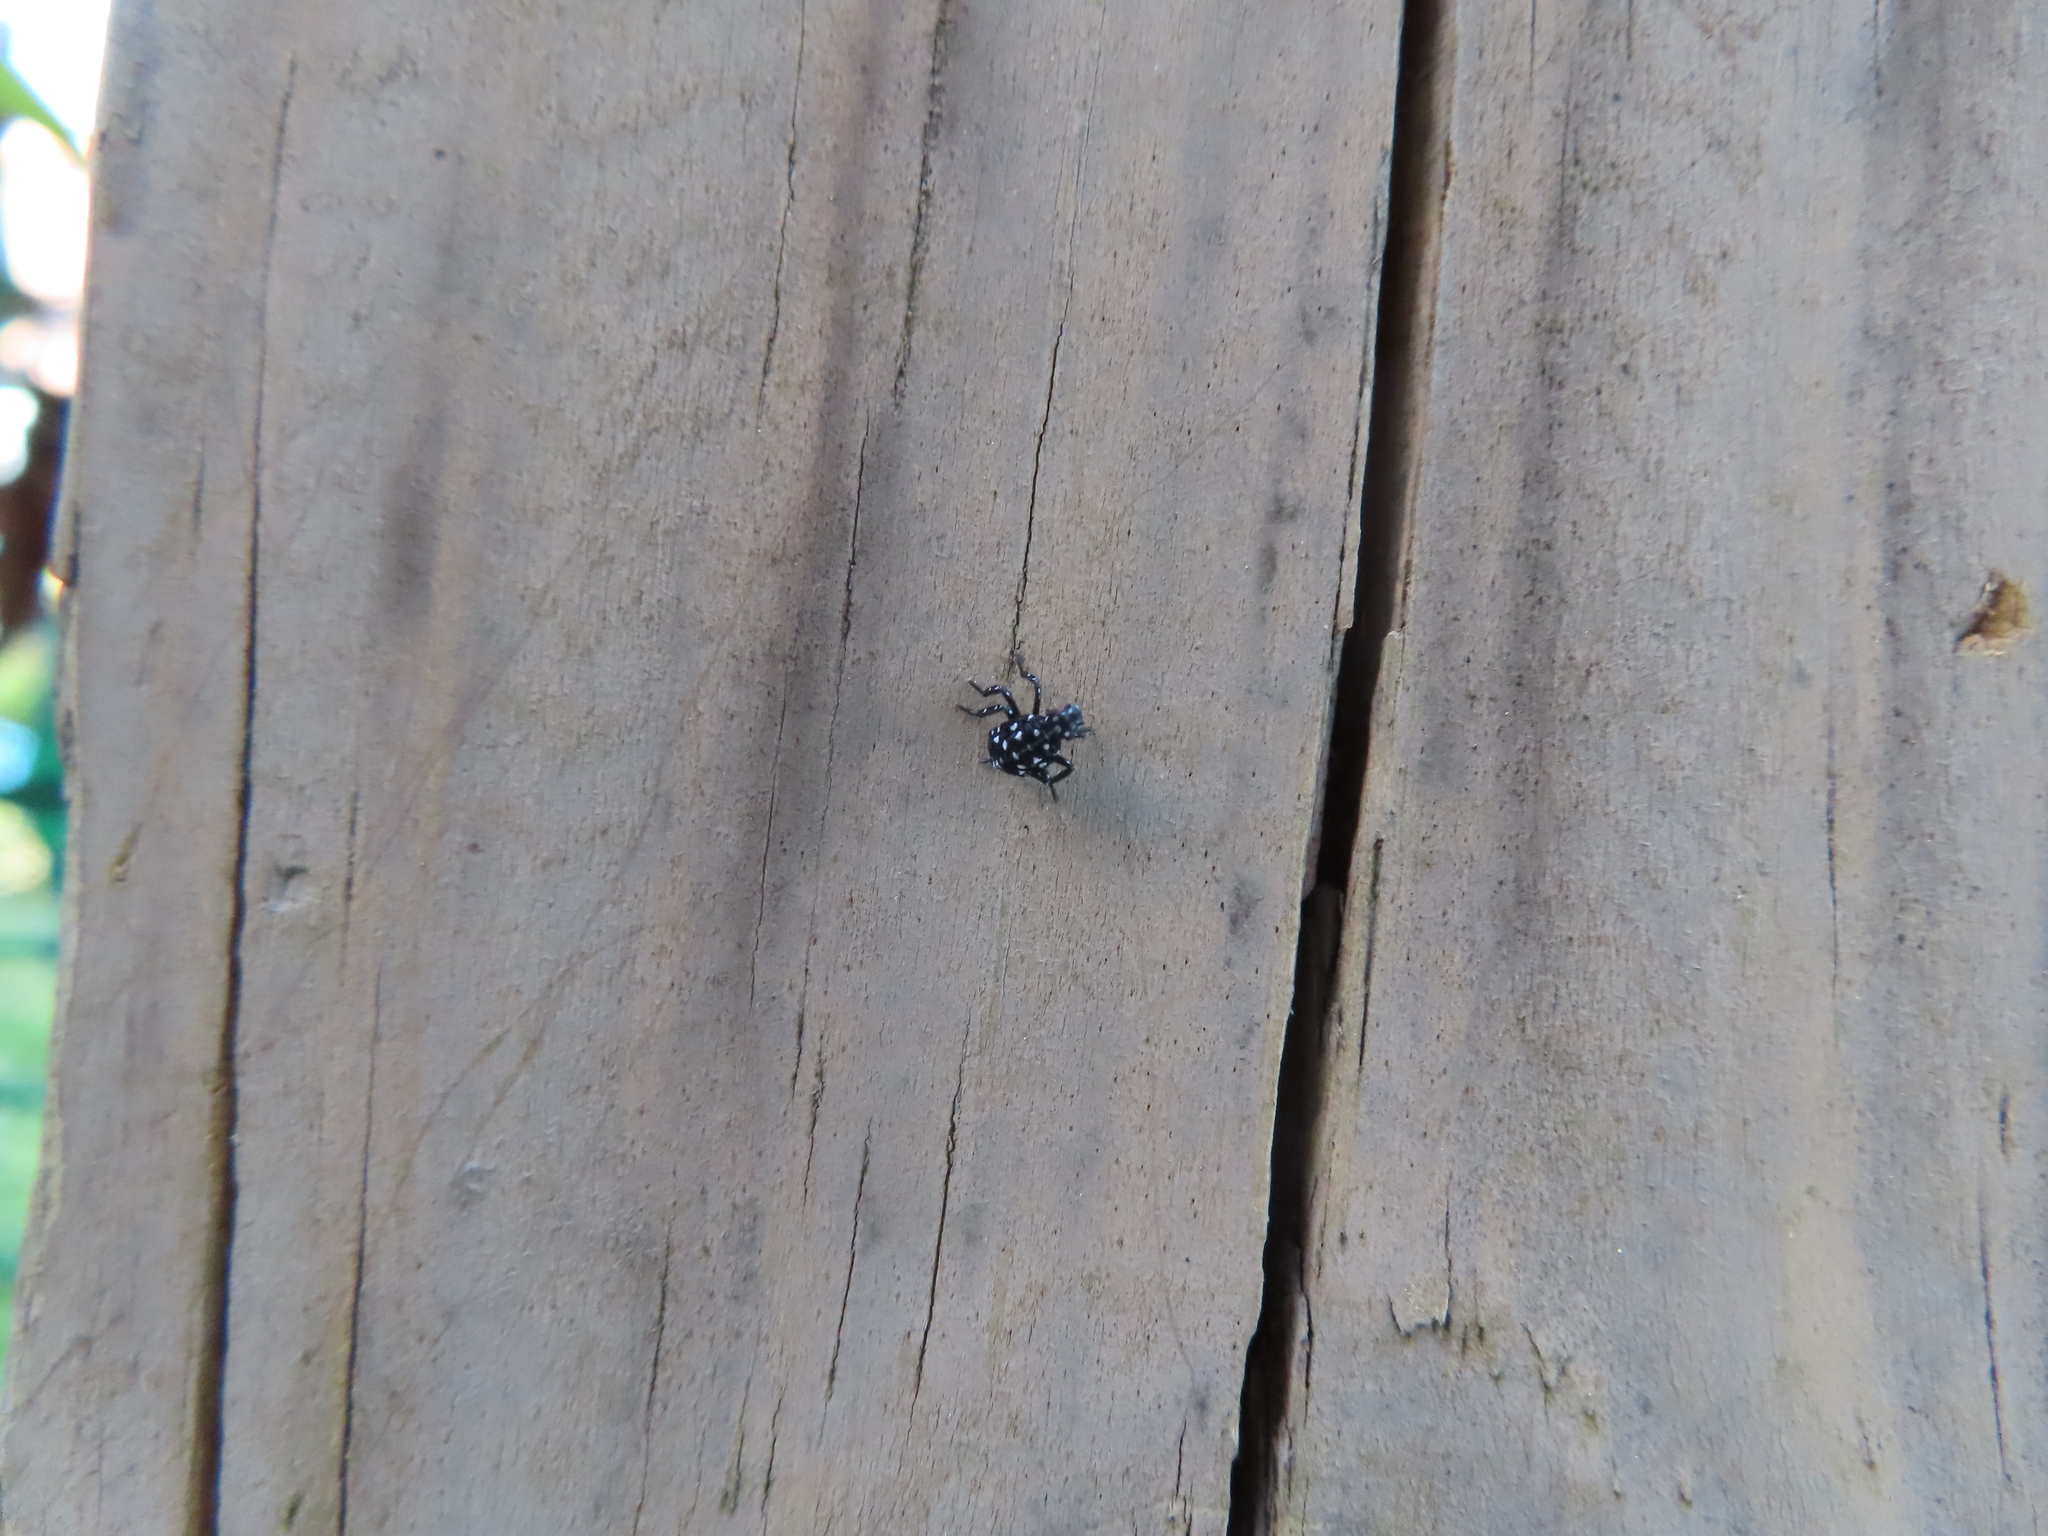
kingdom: Animalia
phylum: Arthropoda
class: Insecta
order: Hemiptera
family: Fulgoridae
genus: Lycorma
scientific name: Lycorma delicatula
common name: Spotted lanternfly
